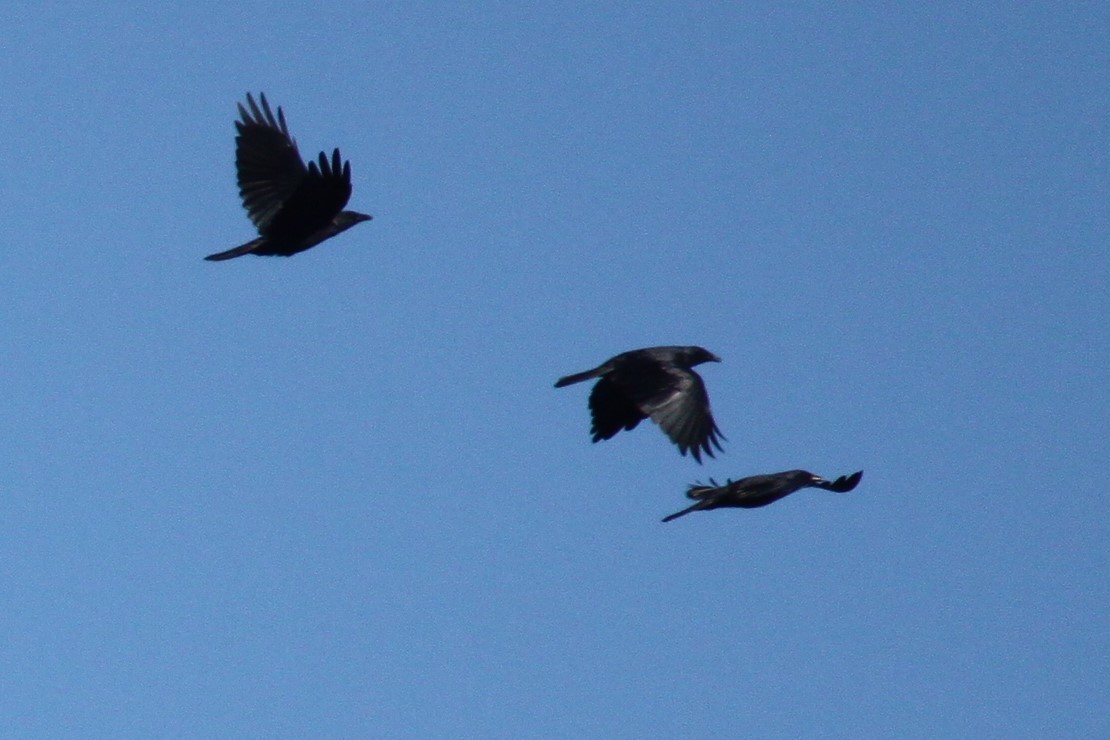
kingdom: Animalia
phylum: Chordata
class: Aves
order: Passeriformes
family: Corvidae
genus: Corvus
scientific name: Corvus ossifragus
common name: Fish crow
